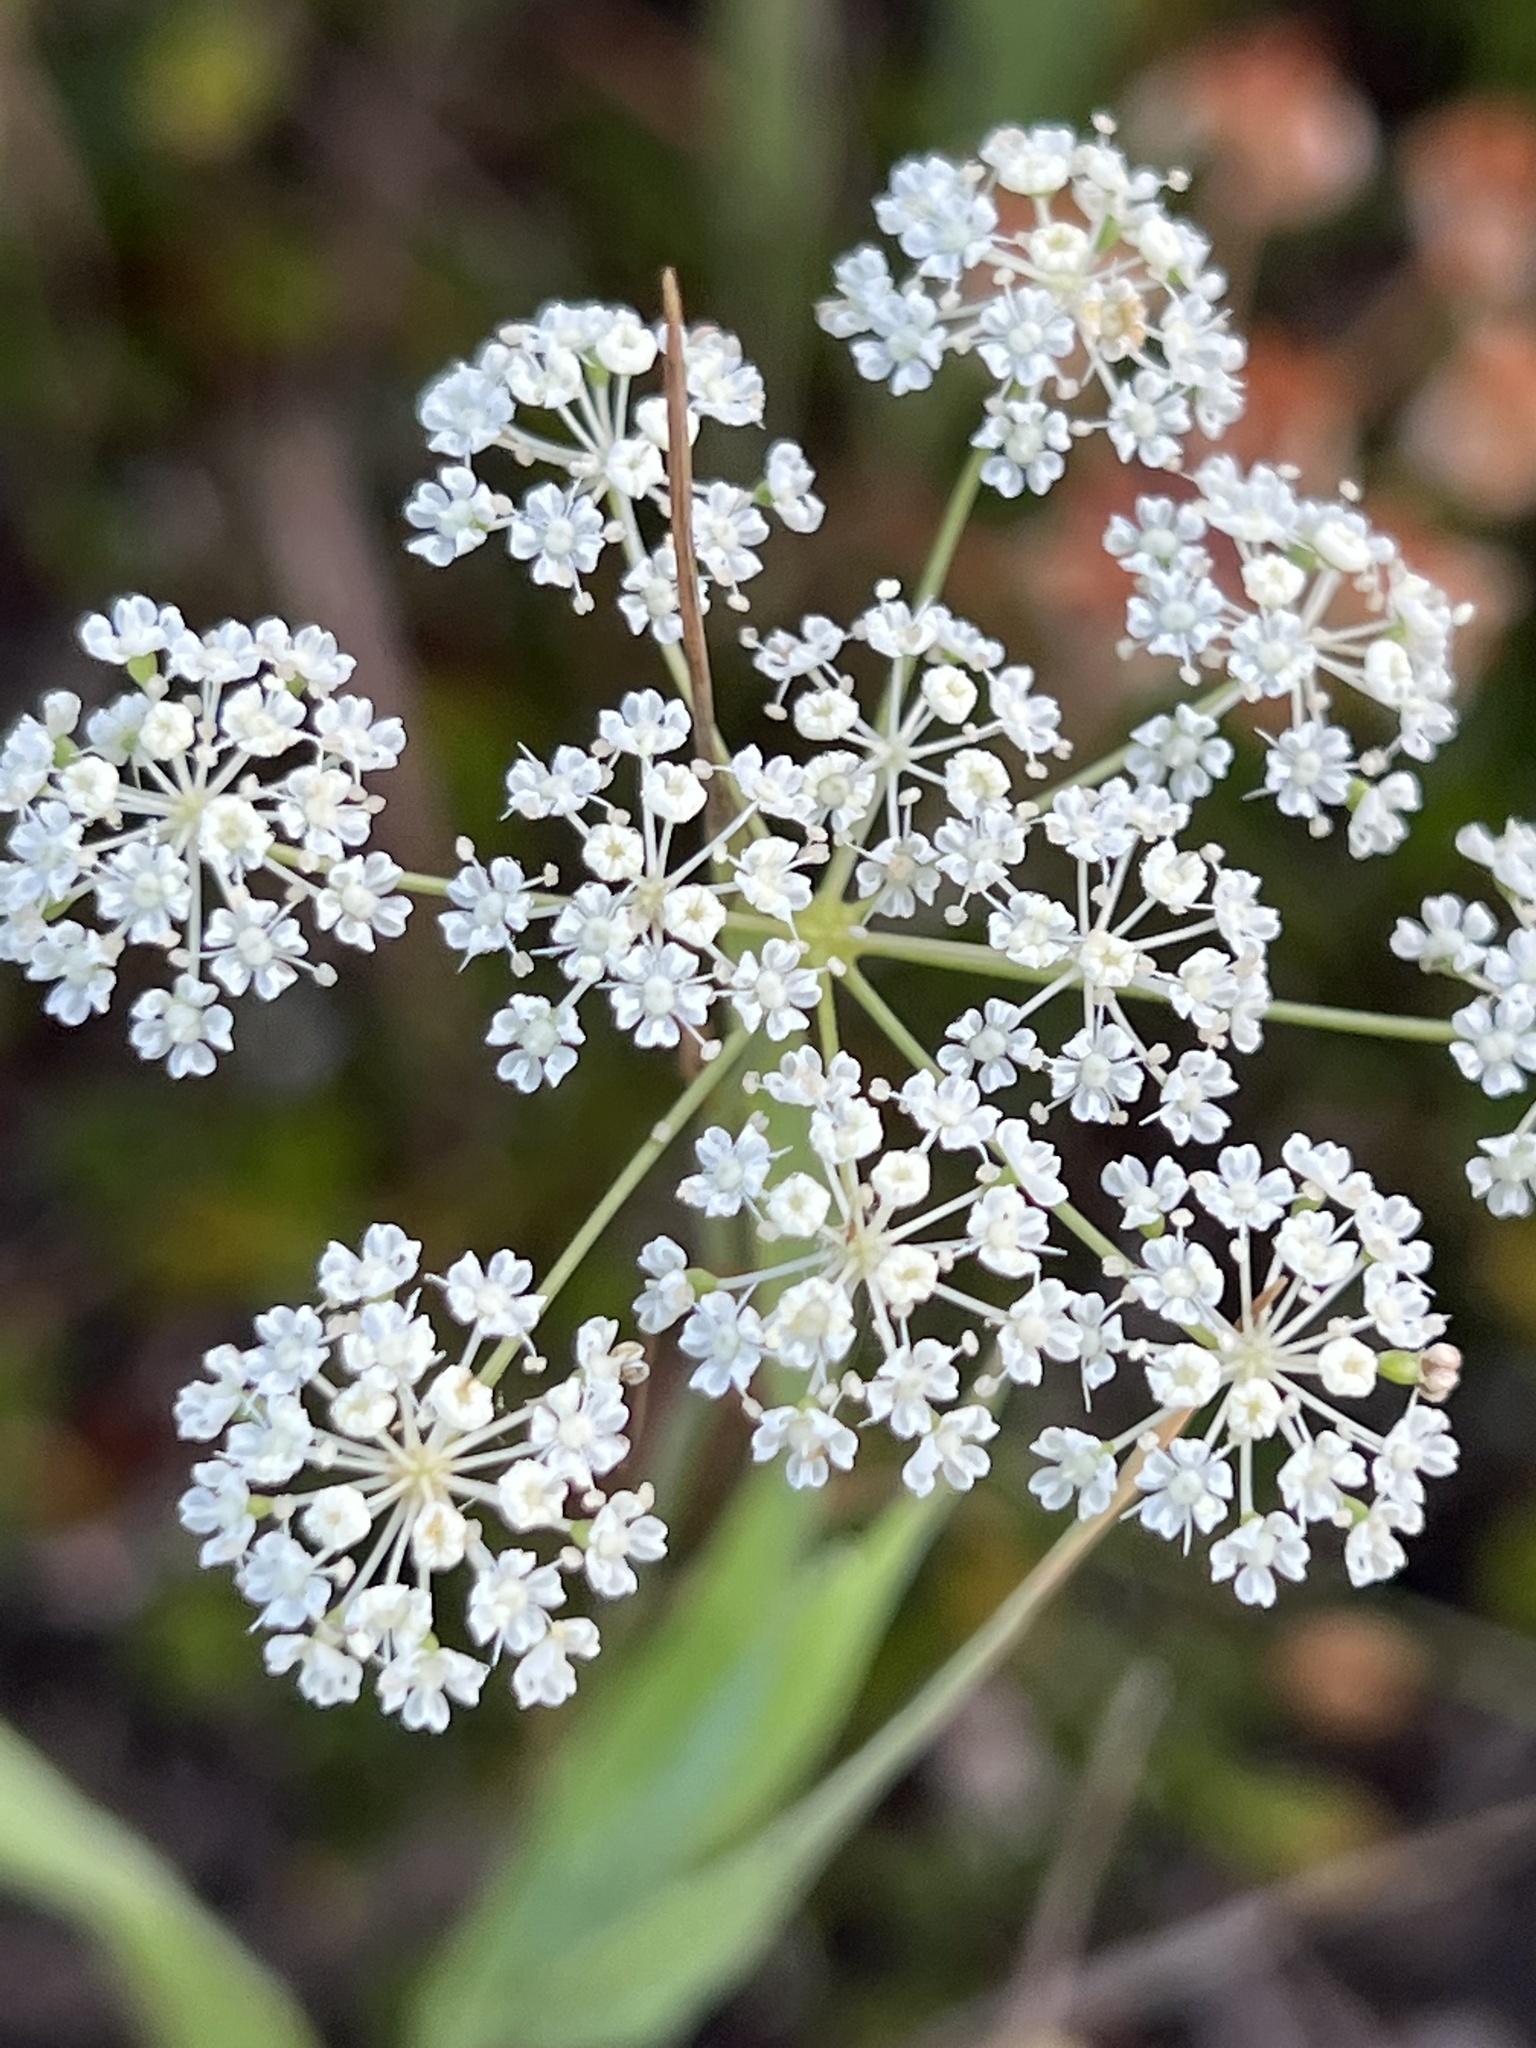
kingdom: Plantae
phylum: Tracheophyta
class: Magnoliopsida
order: Apiales
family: Apiaceae
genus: Perideridia
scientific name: Perideridia gairdneri
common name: False caraway
